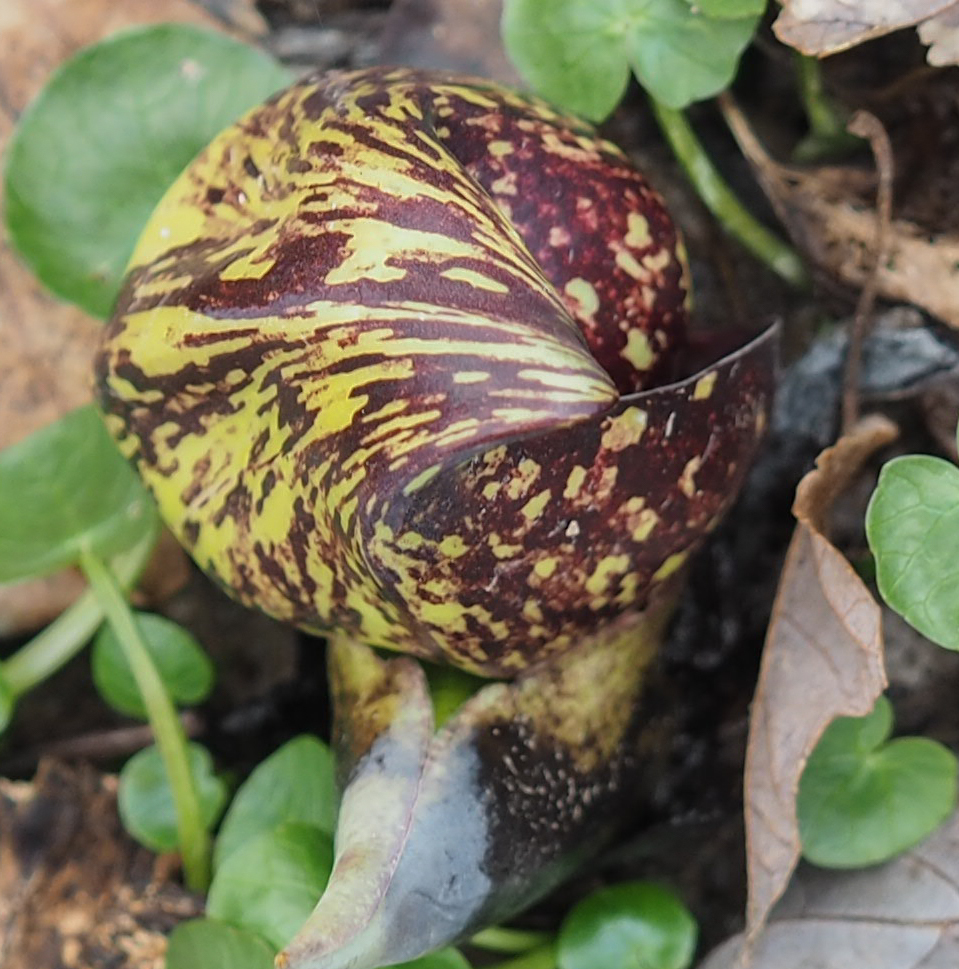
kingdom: Plantae
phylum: Tracheophyta
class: Liliopsida
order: Alismatales
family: Araceae
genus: Symplocarpus
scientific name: Symplocarpus foetidus
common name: Eastern skunk cabbage
